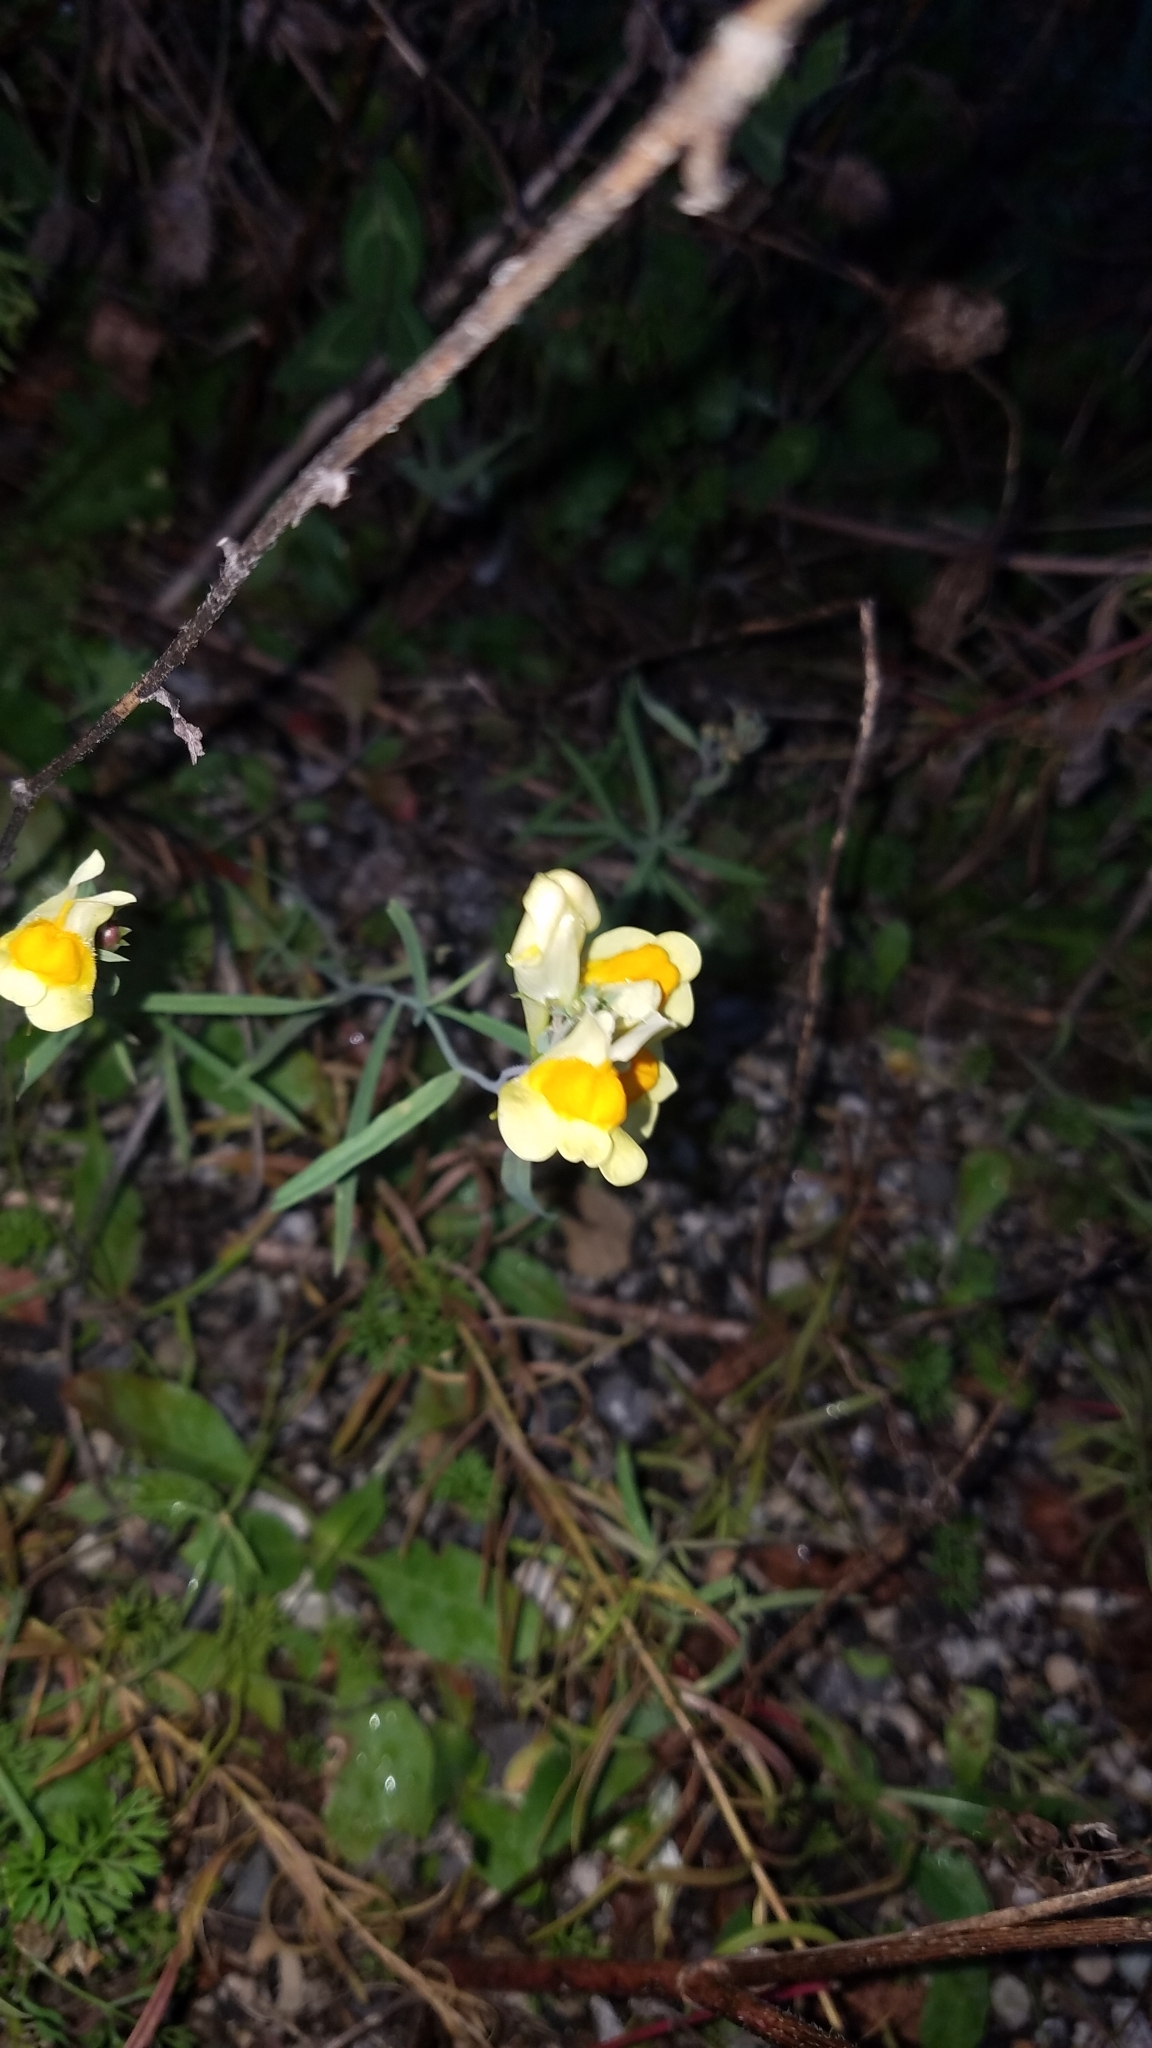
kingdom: Plantae
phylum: Tracheophyta
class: Magnoliopsida
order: Lamiales
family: Plantaginaceae
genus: Linaria
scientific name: Linaria vulgaris
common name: Butter and eggs
